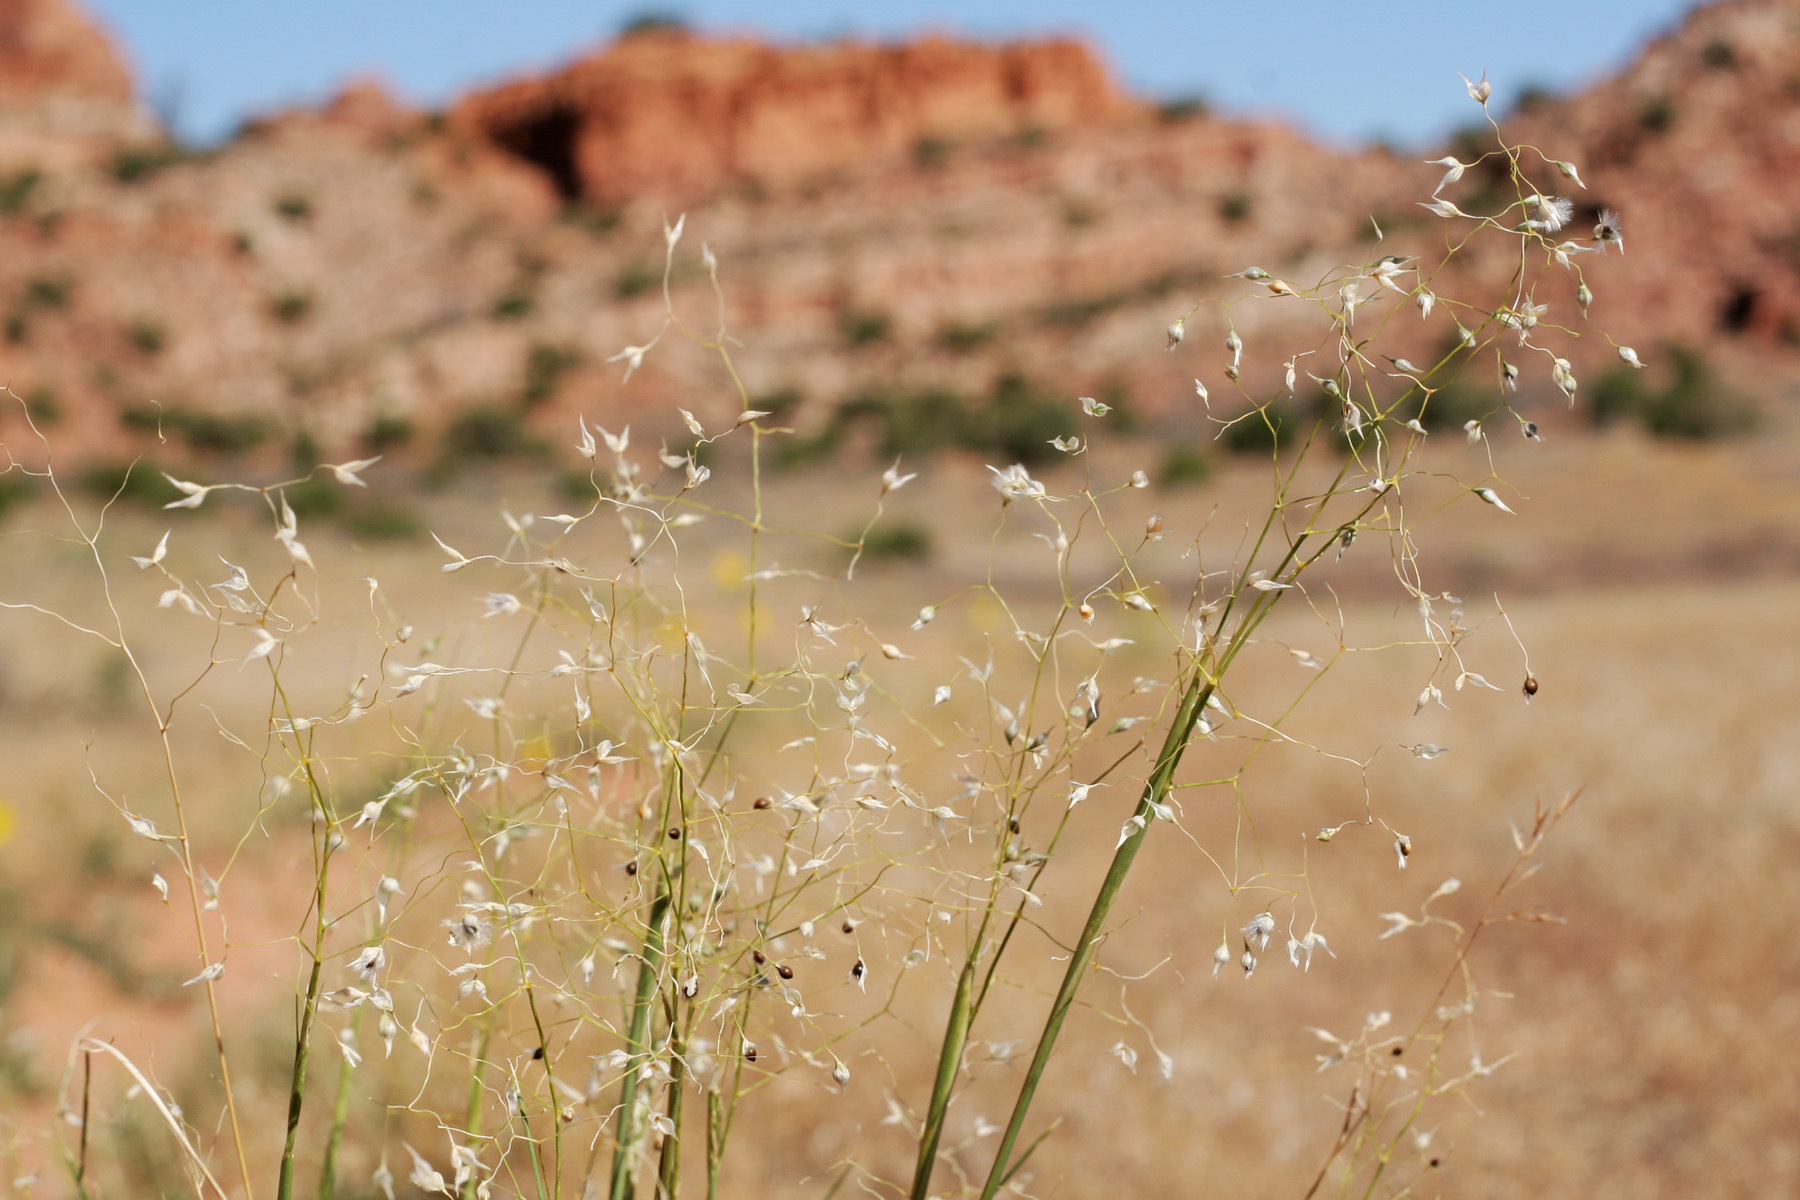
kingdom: Plantae
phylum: Tracheophyta
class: Liliopsida
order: Poales
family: Poaceae
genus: Eriocoma
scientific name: Eriocoma hymenoides
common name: Indian mountain ricegrass
